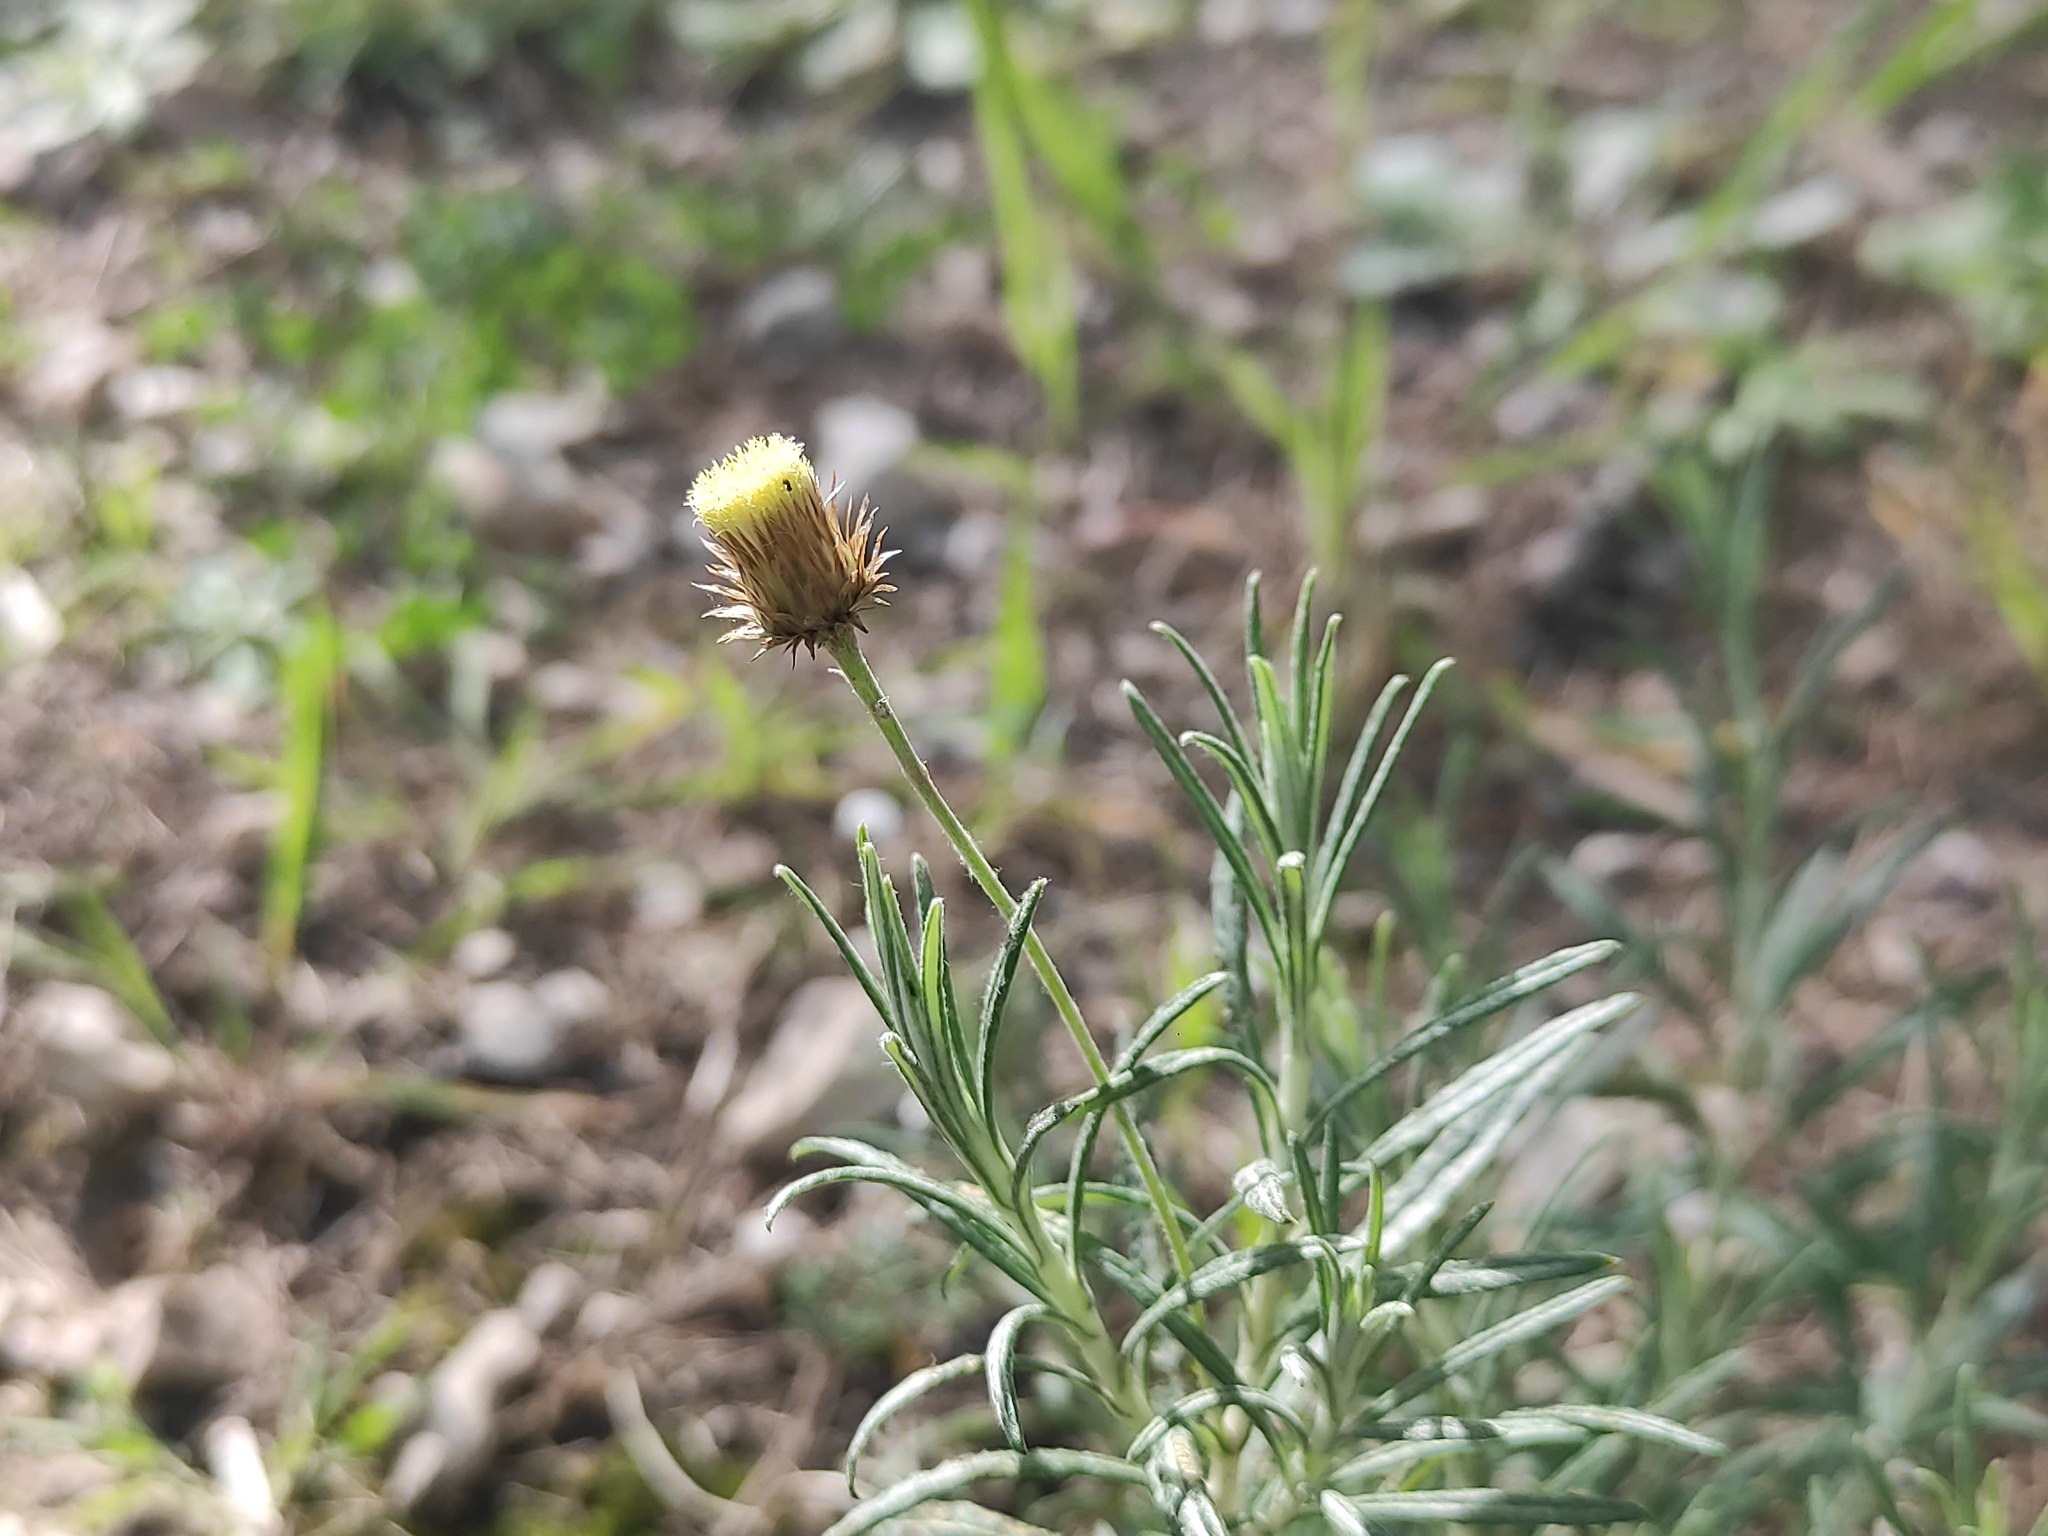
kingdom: Plantae
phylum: Tracheophyta
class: Magnoliopsida
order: Asterales
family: Asteraceae
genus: Phagnalon
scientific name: Phagnalon saxatile
